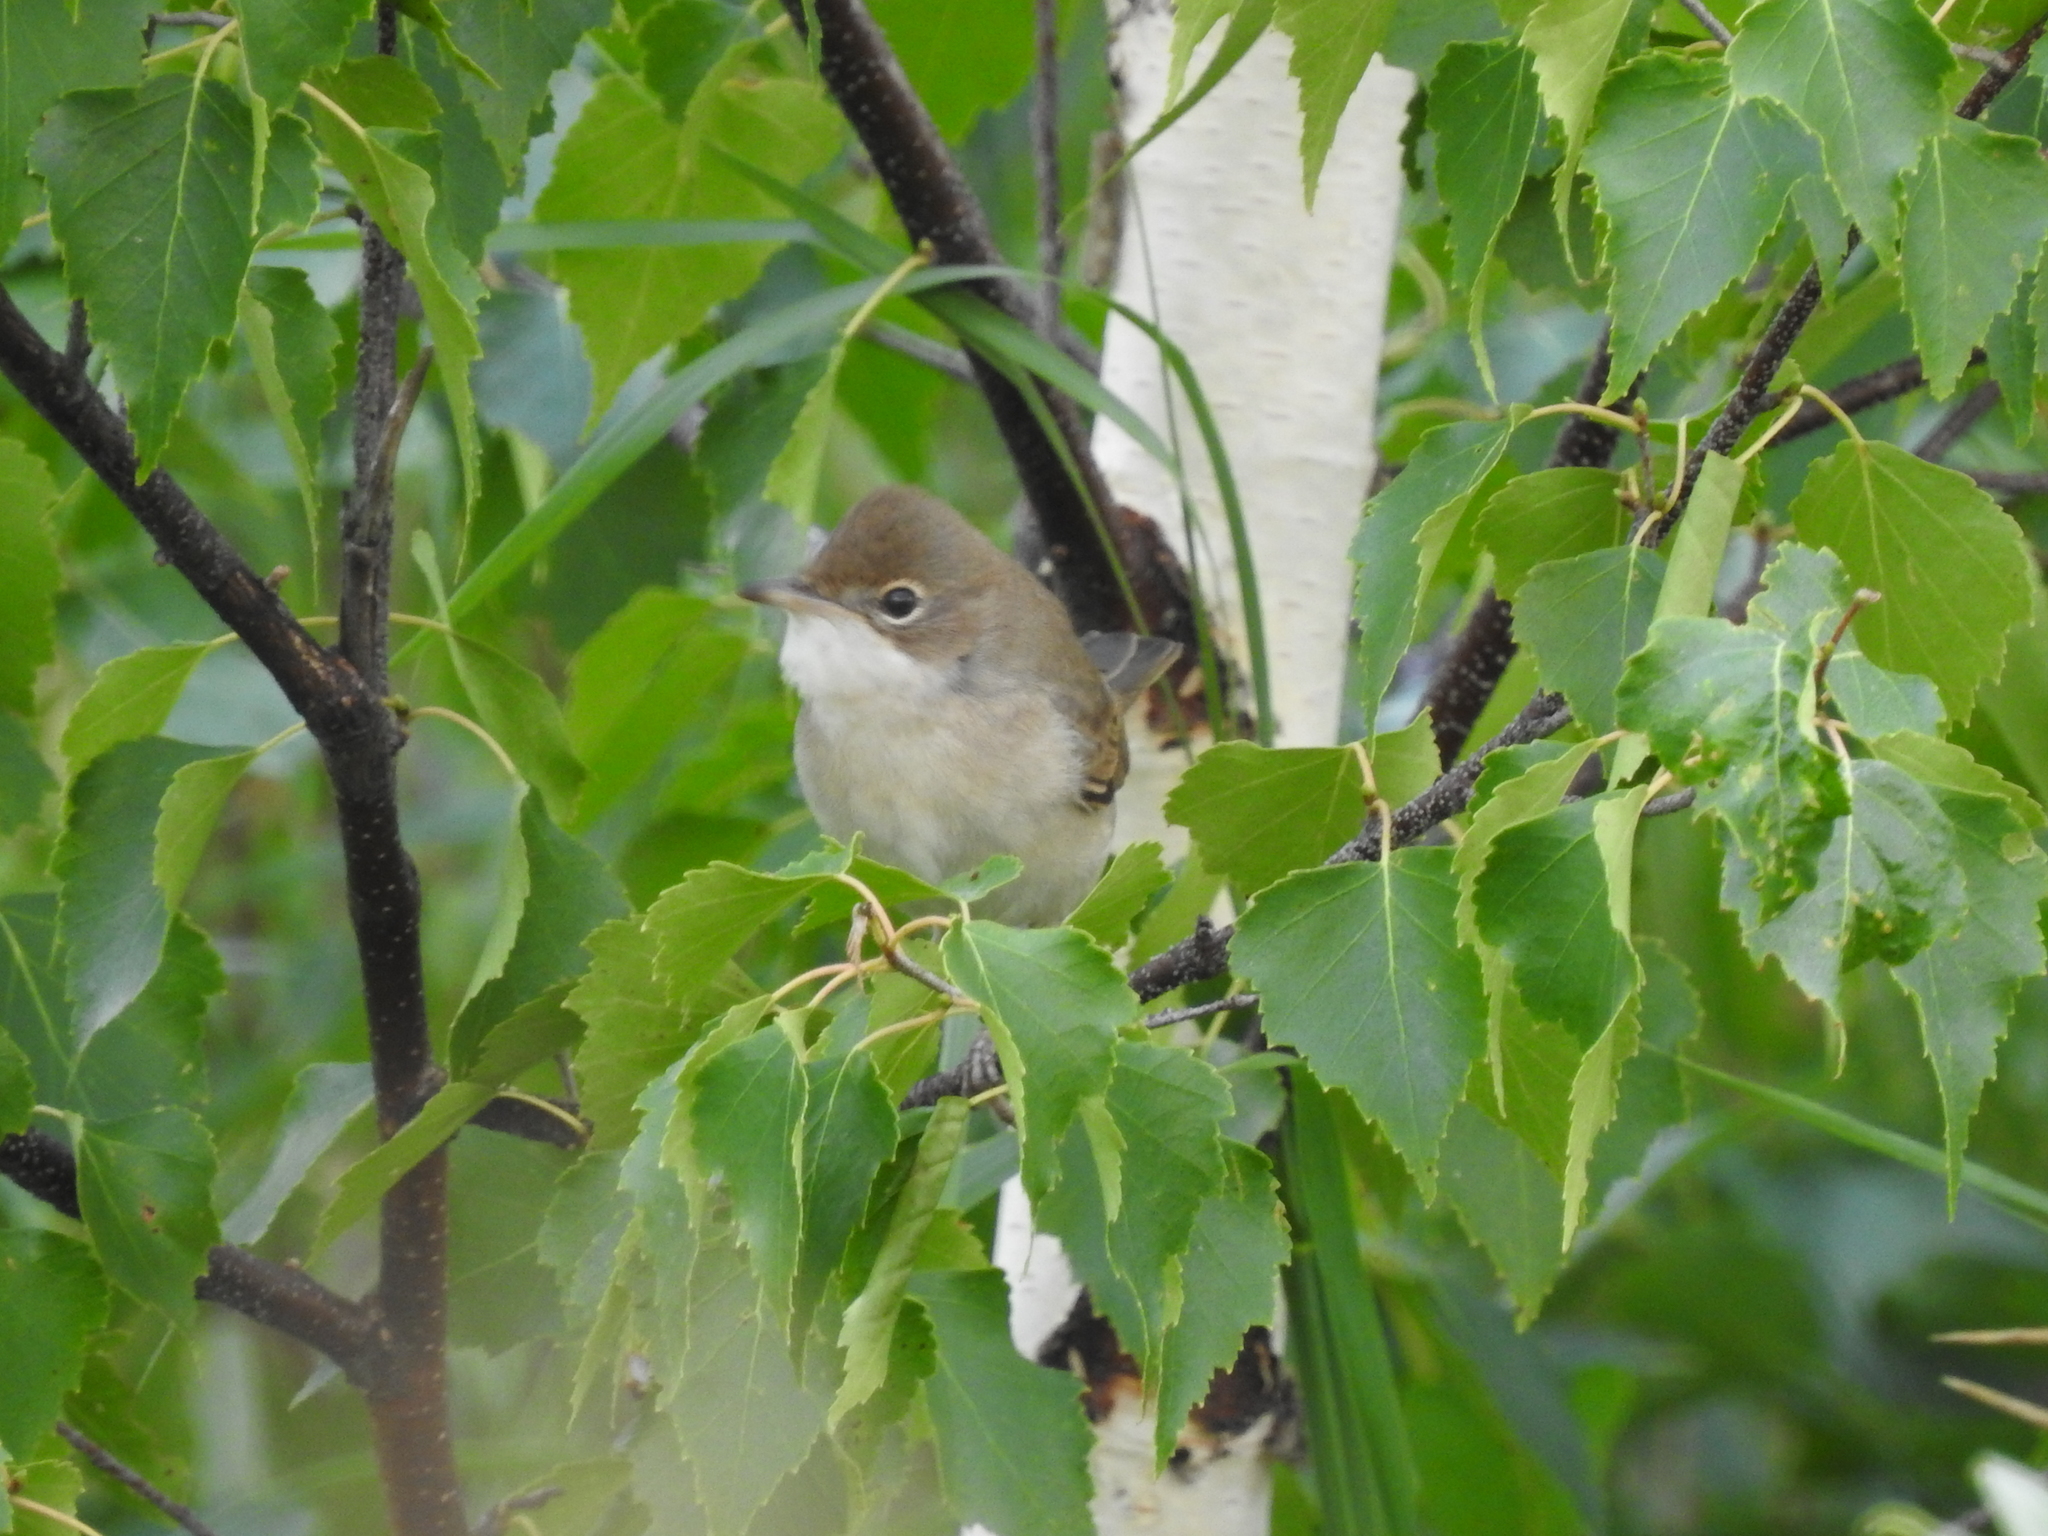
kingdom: Animalia
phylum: Chordata
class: Aves
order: Passeriformes
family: Sylviidae
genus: Sylvia
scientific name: Sylvia communis
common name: Common whitethroat
